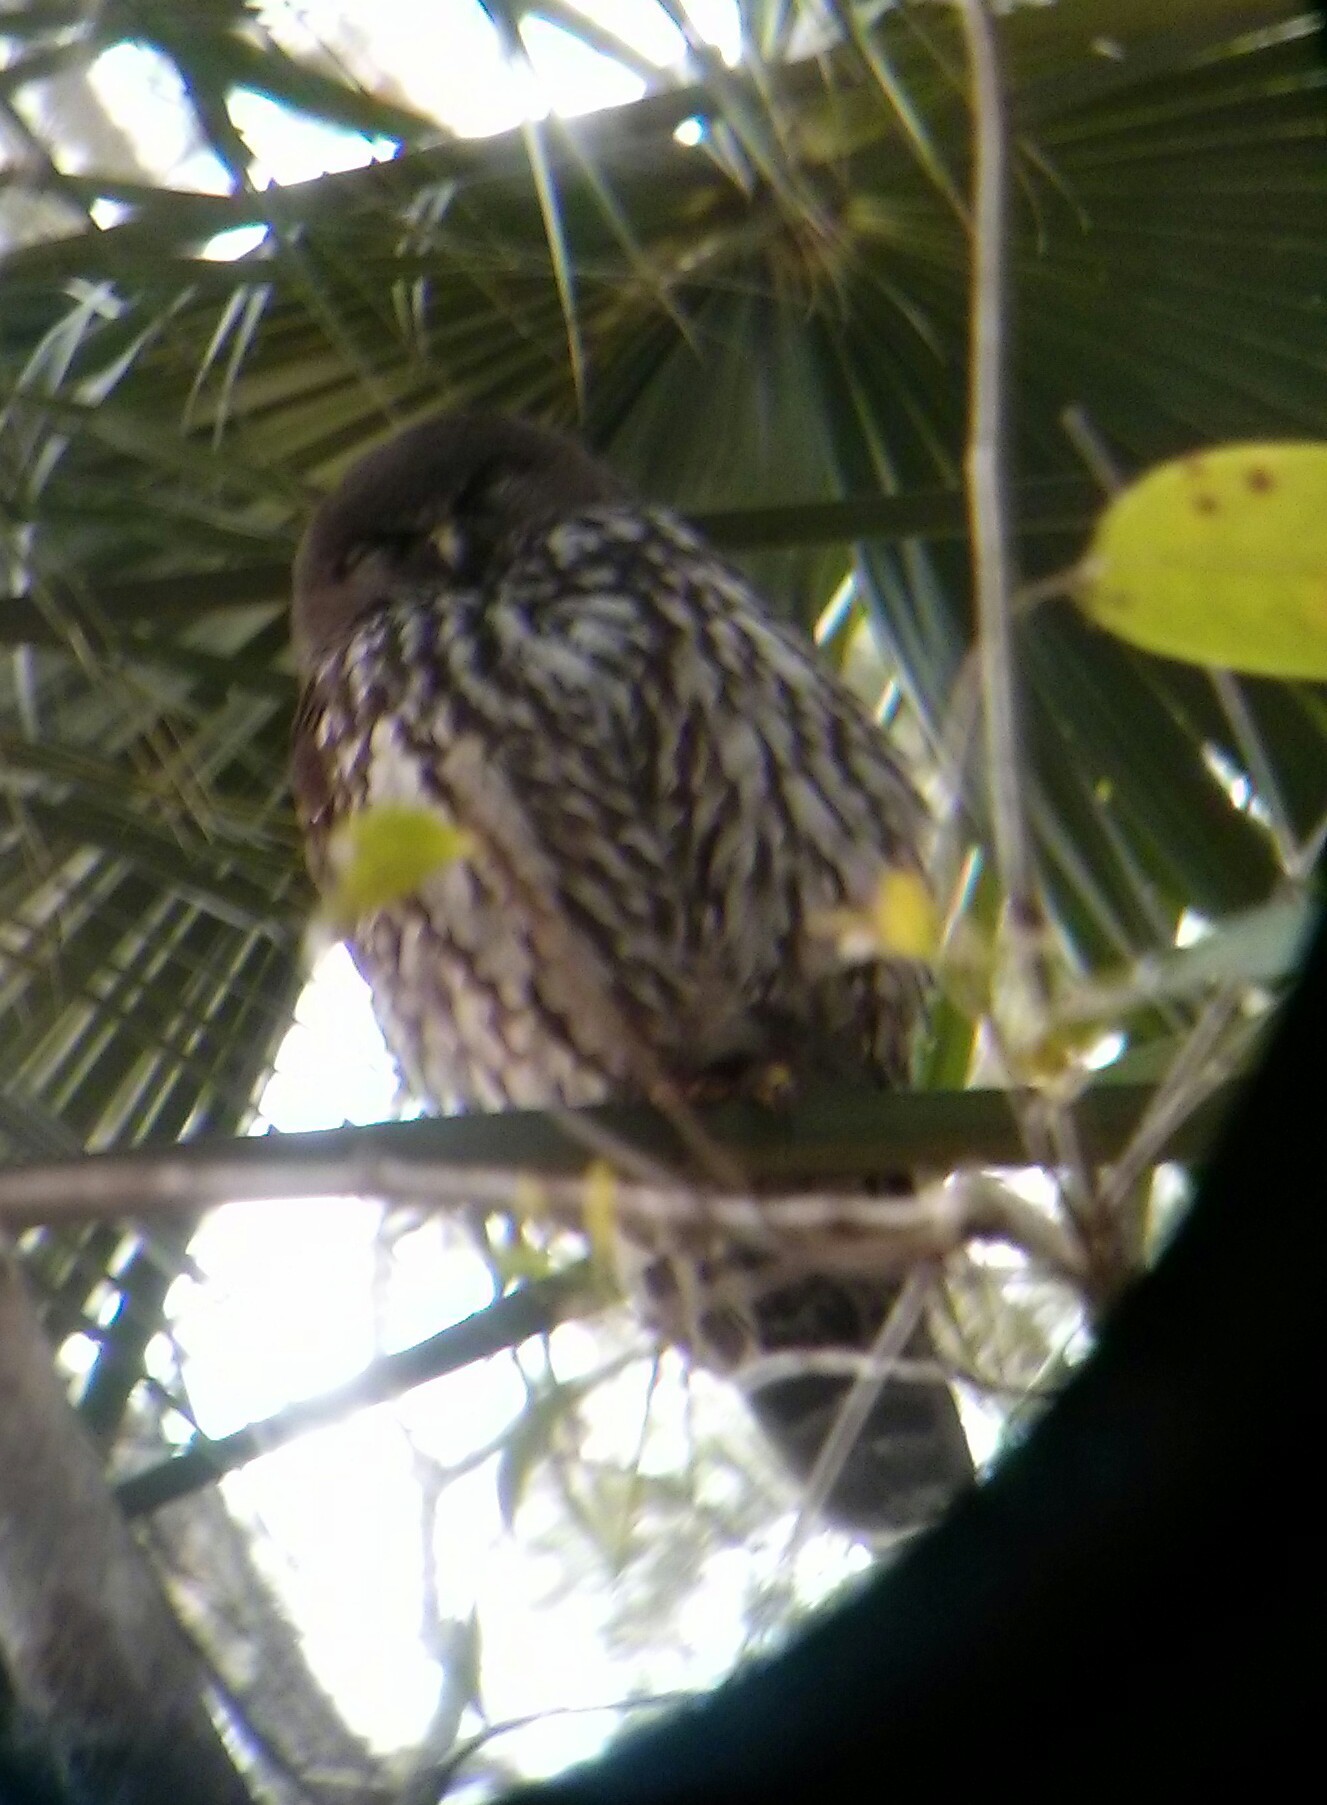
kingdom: Animalia
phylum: Chordata
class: Aves
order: Strigiformes
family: Strigidae
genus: Ninox
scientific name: Ninox connivens
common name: Barking owl
